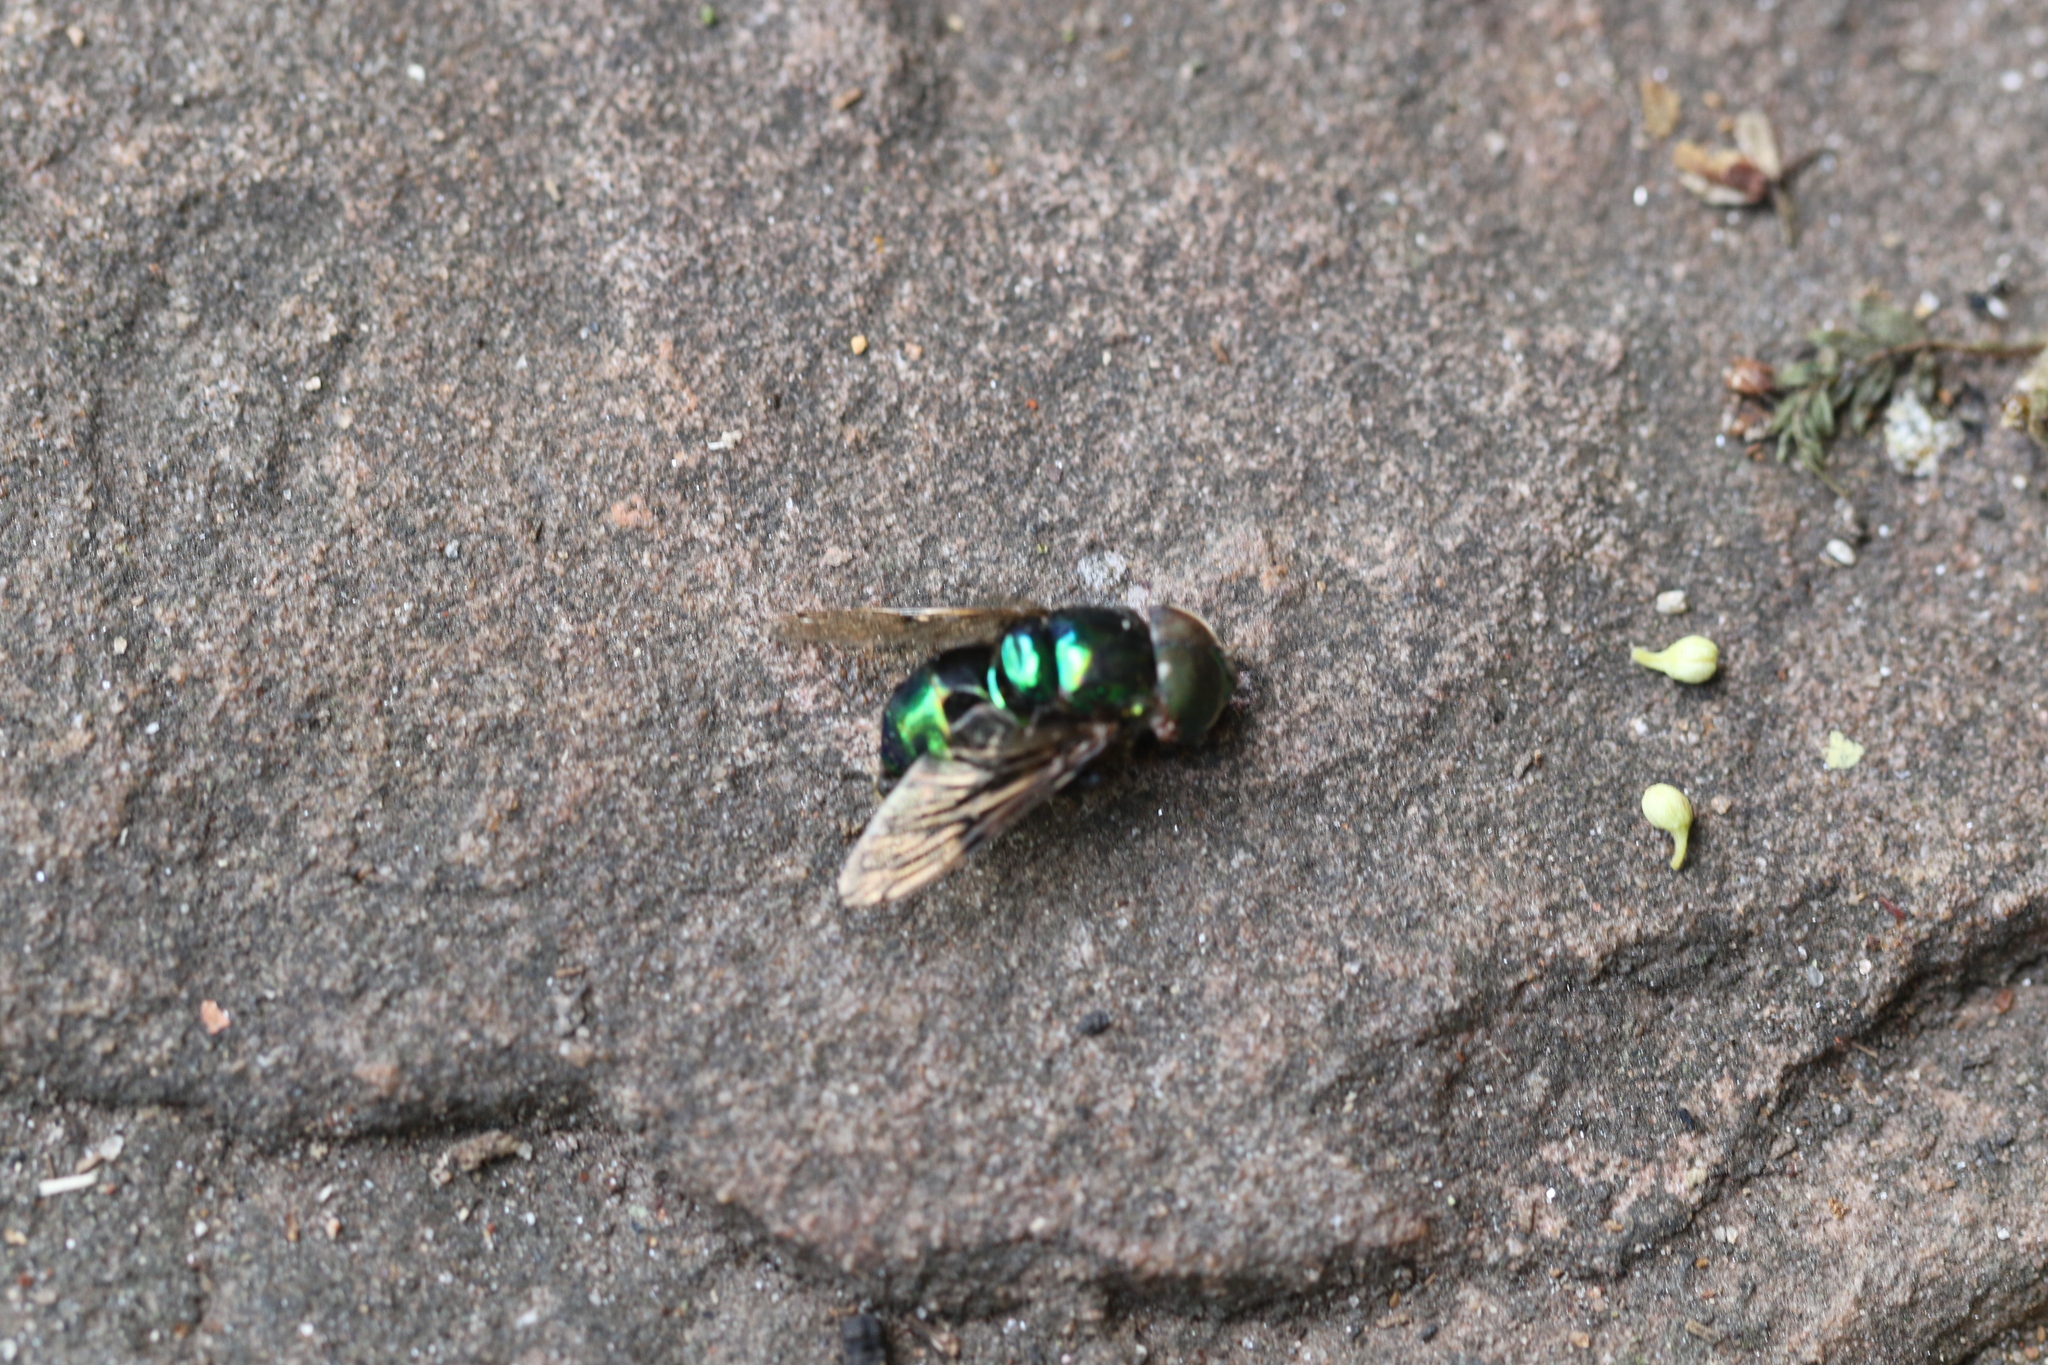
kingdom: Animalia
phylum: Arthropoda
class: Insecta
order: Diptera
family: Syrphidae
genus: Ornidia
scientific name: Ornidia obesa
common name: Syrphid fly
